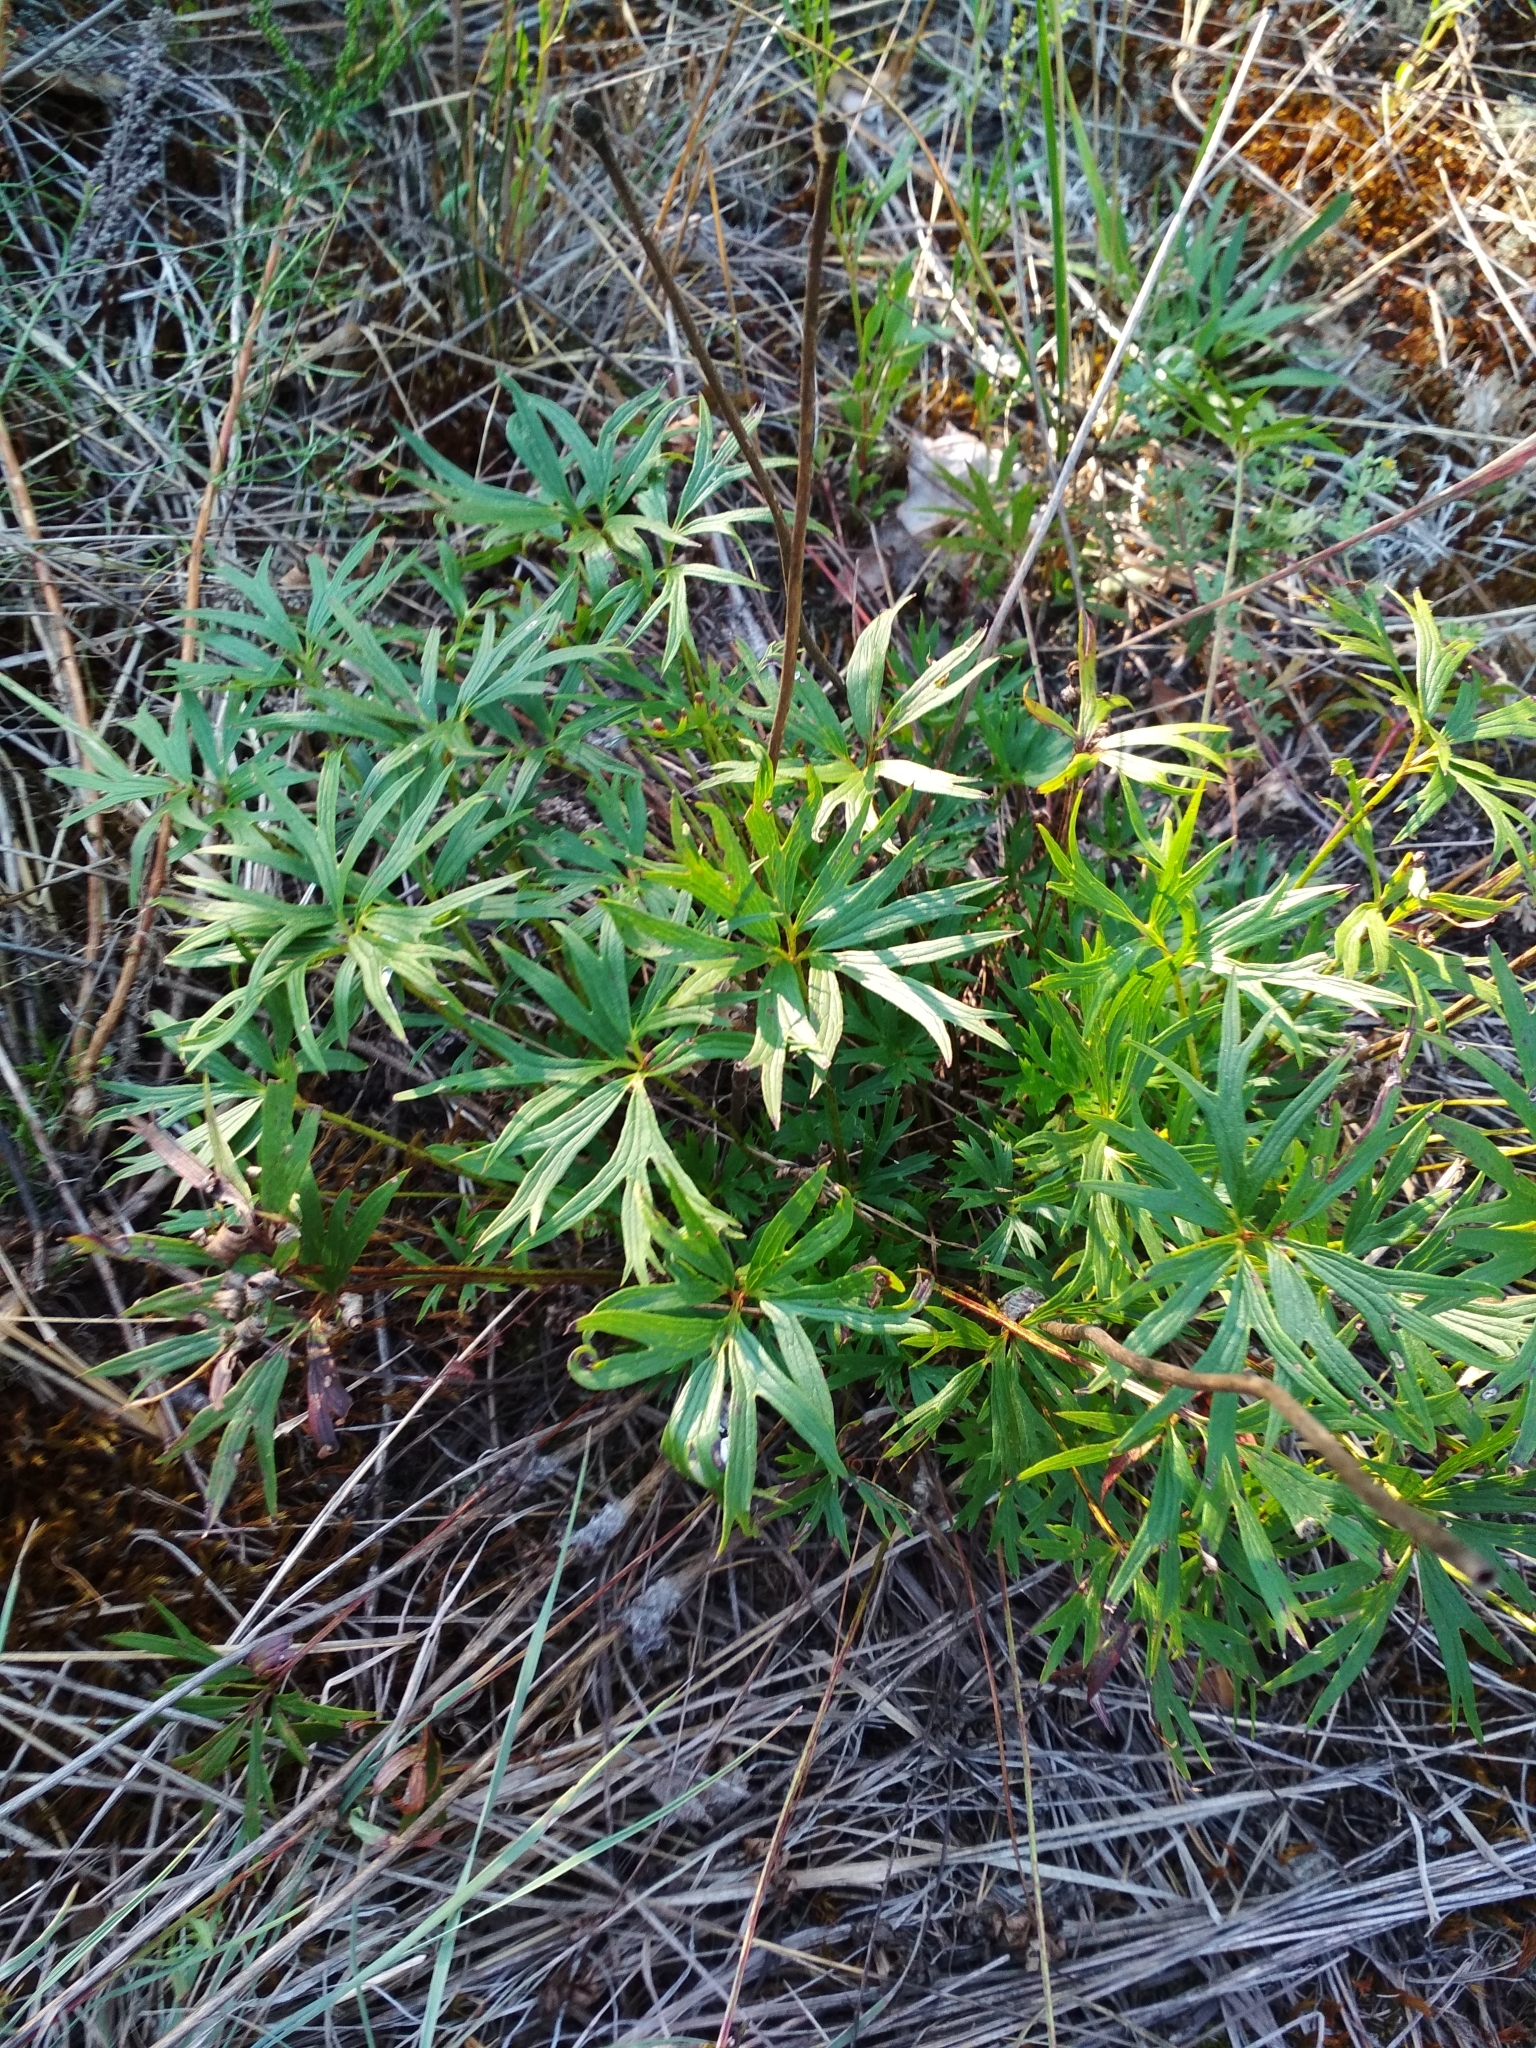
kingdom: Plantae
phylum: Tracheophyta
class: Magnoliopsida
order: Ranunculales
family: Ranunculaceae
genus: Pulsatilla
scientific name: Pulsatilla patens
